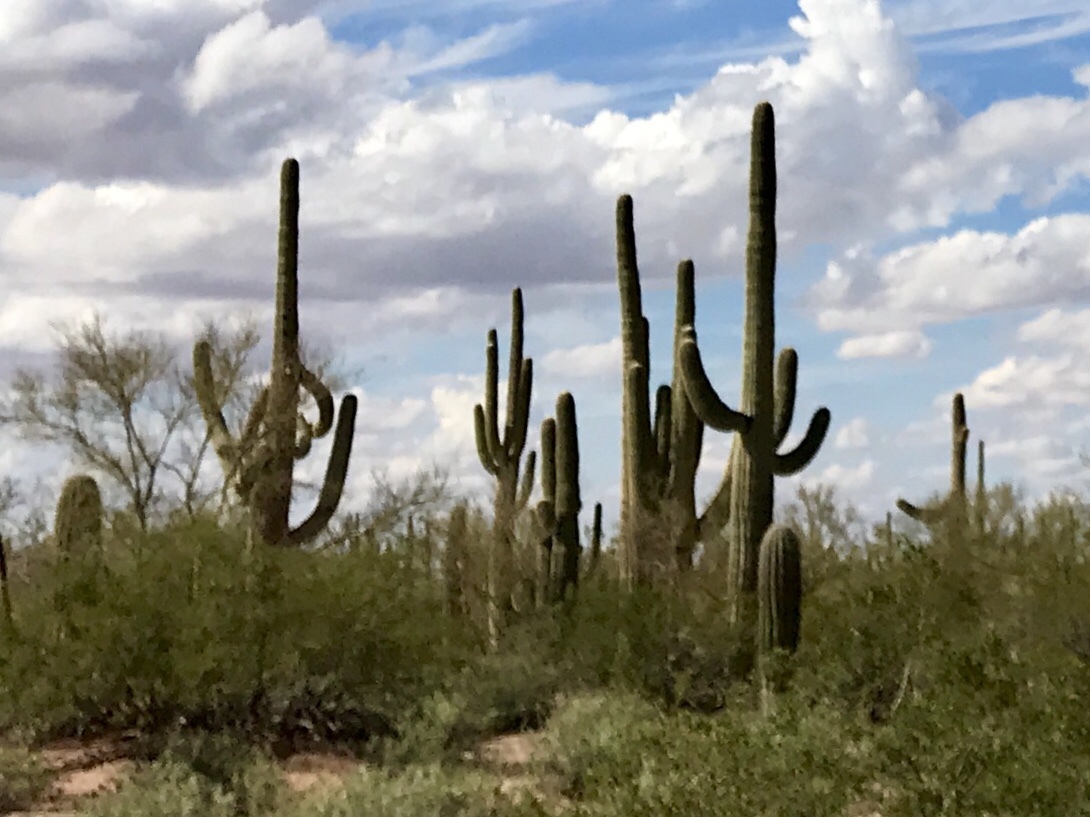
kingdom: Plantae
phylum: Tracheophyta
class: Magnoliopsida
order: Caryophyllales
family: Cactaceae
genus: Carnegiea
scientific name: Carnegiea gigantea
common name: Saguaro
